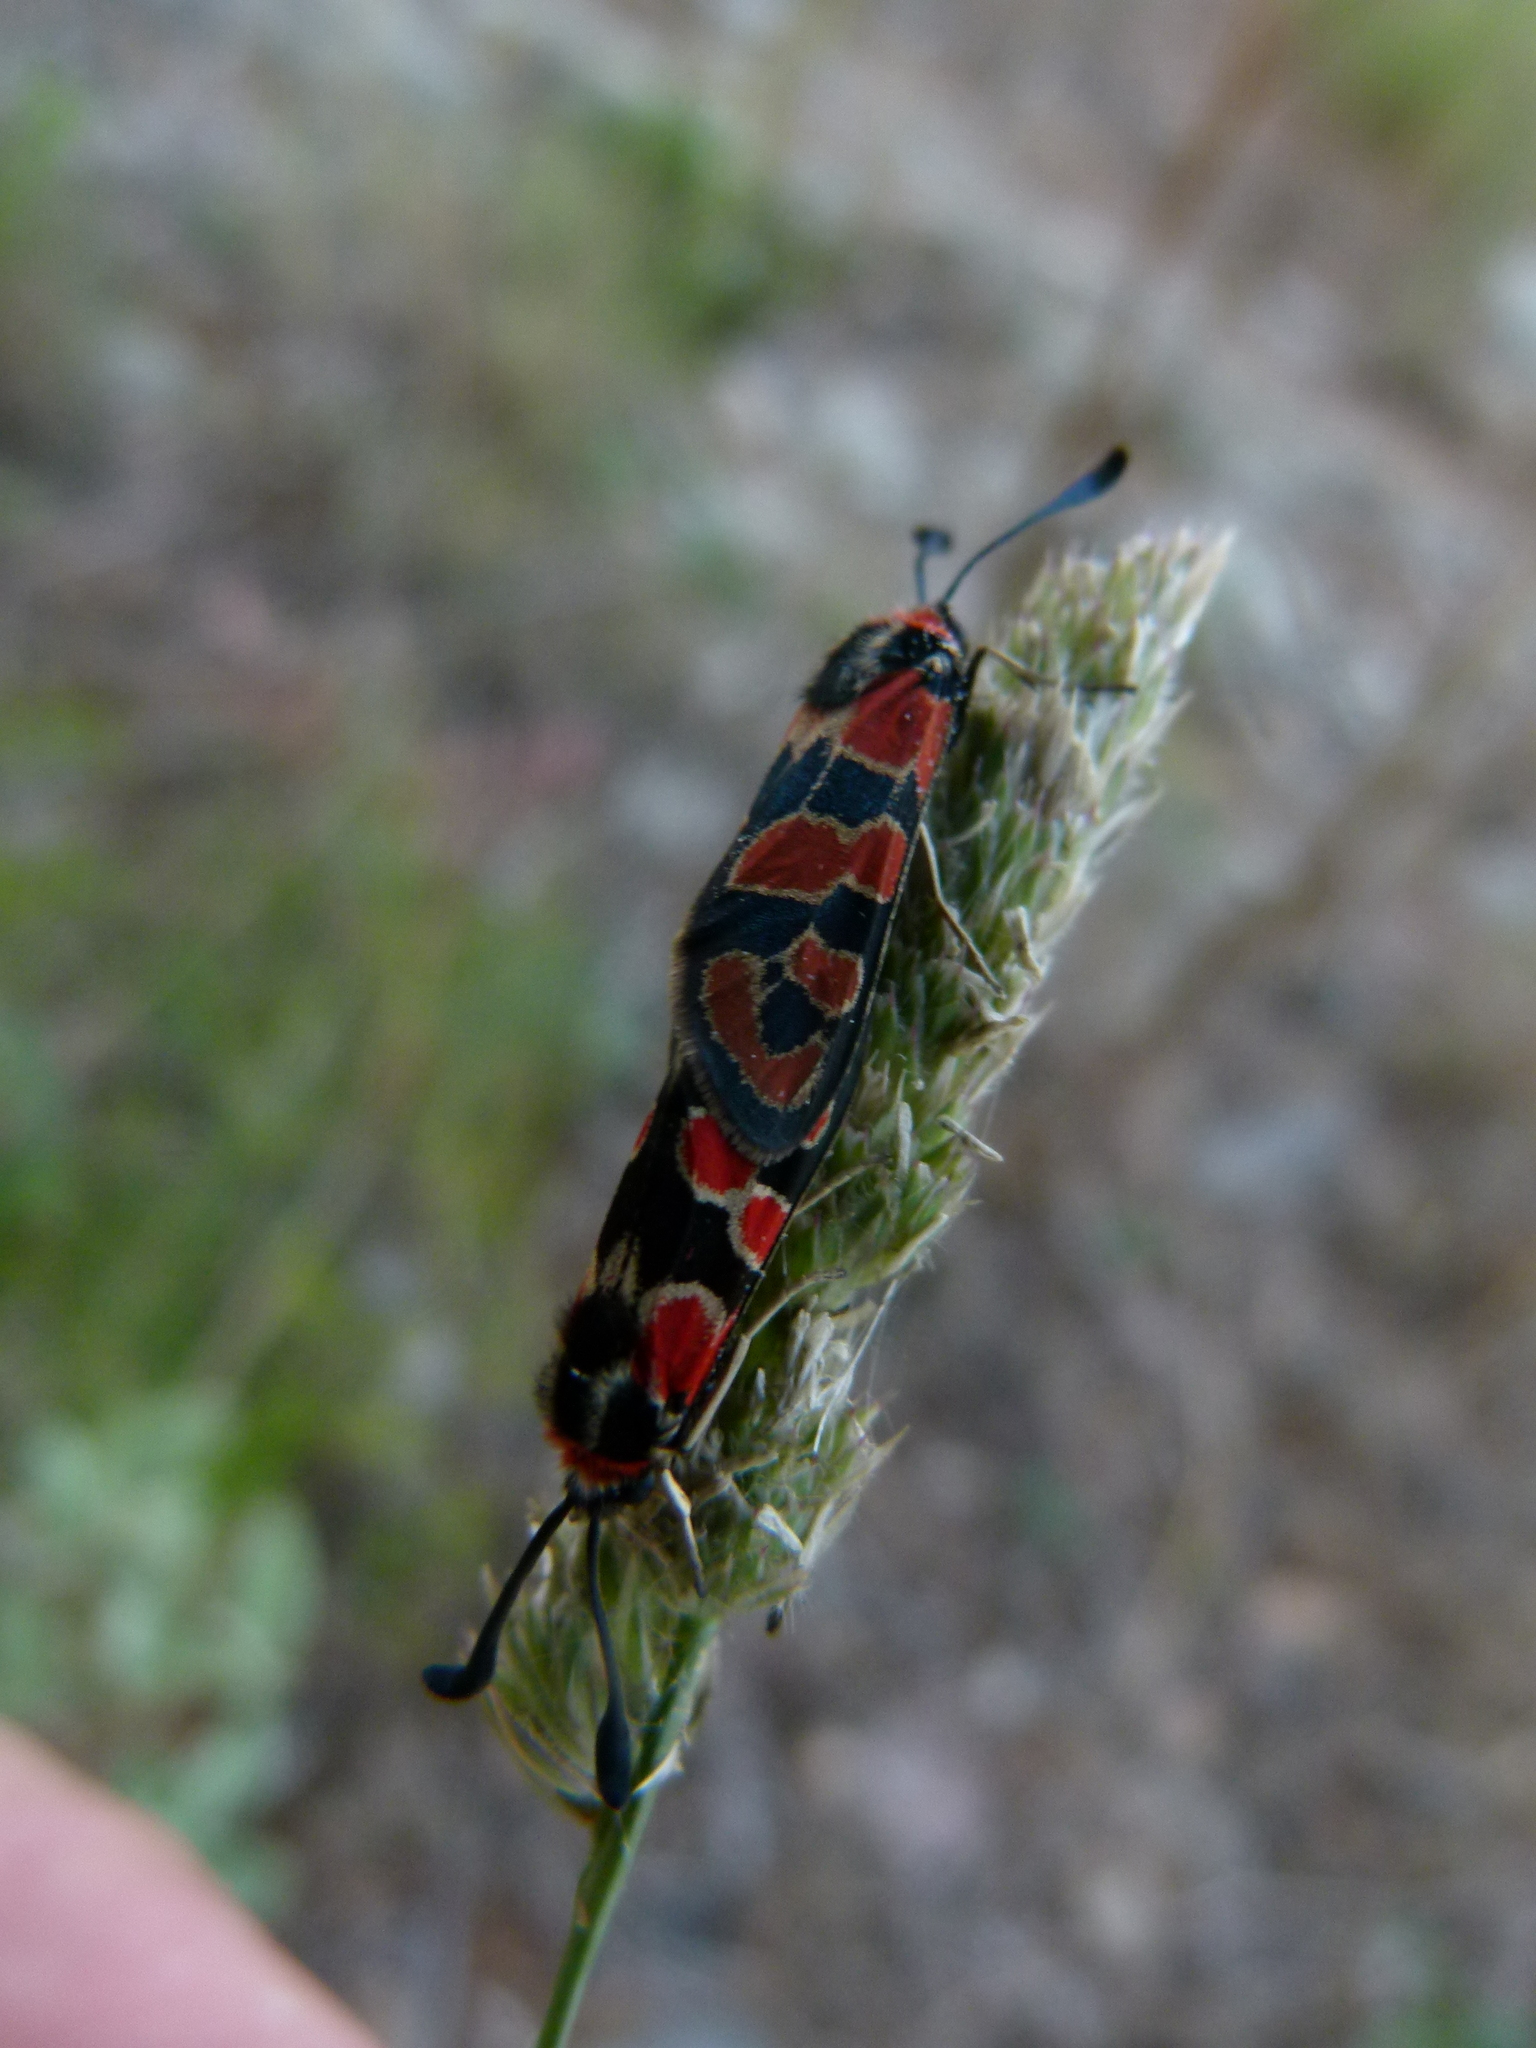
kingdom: Animalia
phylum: Arthropoda
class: Insecta
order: Lepidoptera
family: Zygaenidae
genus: Zygaena
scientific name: Zygaena fausta
